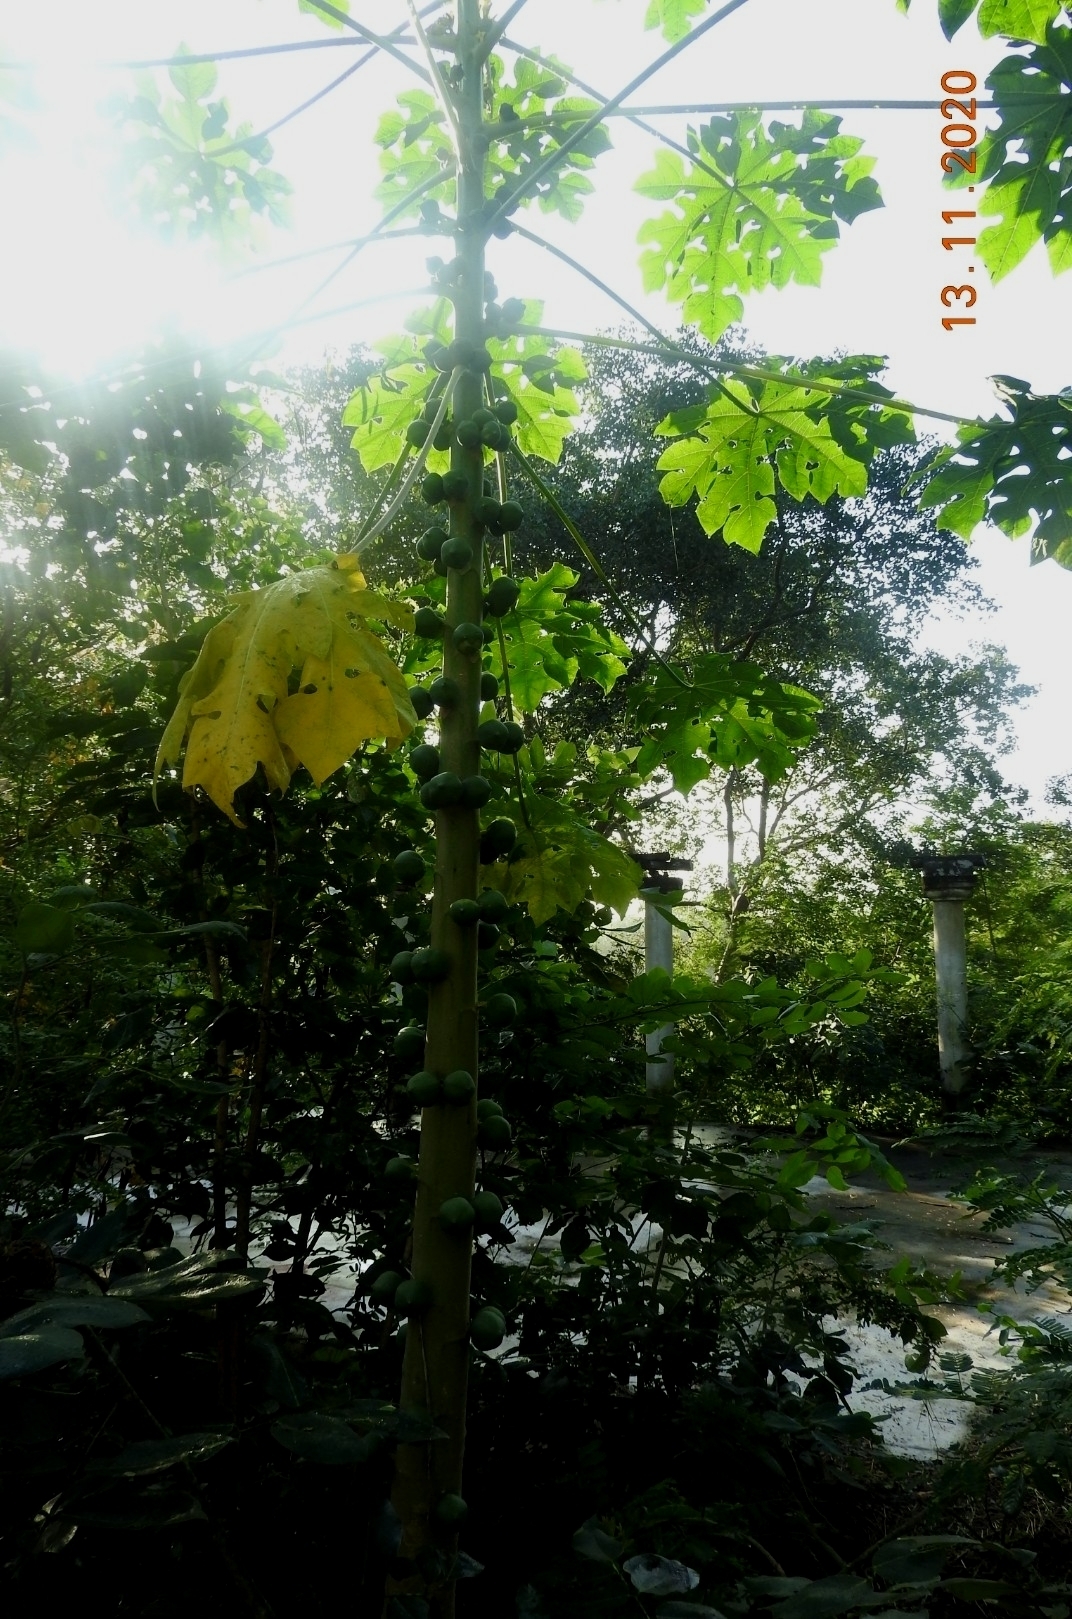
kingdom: Plantae
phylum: Tracheophyta
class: Magnoliopsida
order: Brassicales
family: Caricaceae
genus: Carica
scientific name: Carica papaya
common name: Papaya
